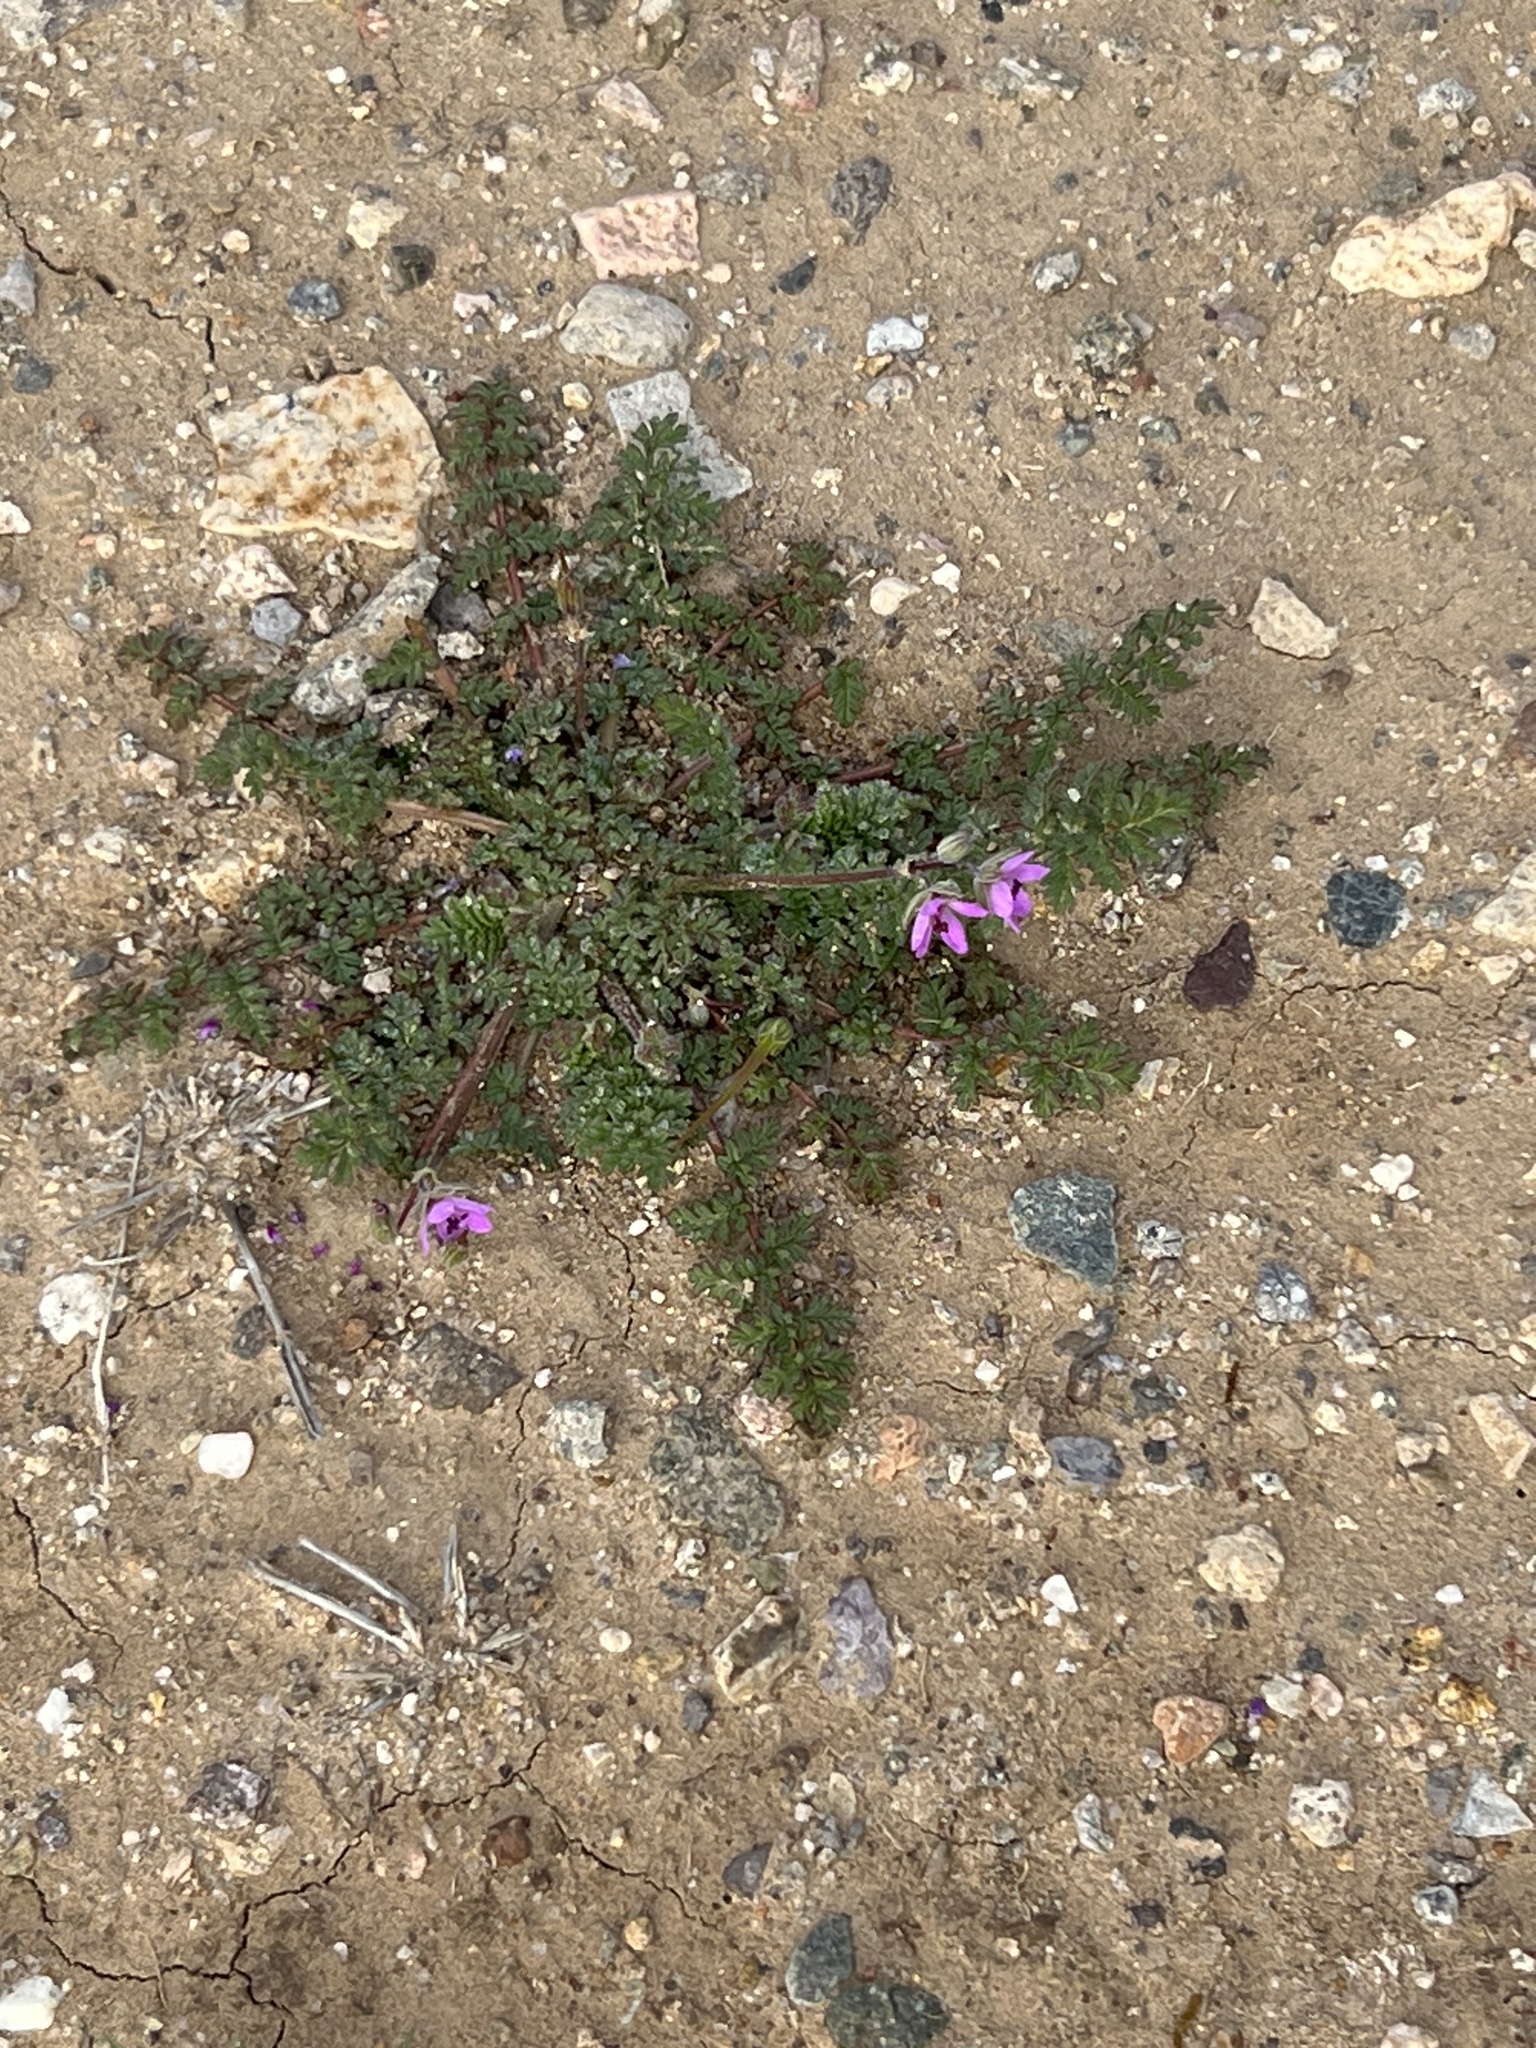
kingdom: Plantae
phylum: Tracheophyta
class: Magnoliopsida
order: Geraniales
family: Geraniaceae
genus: Erodium
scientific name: Erodium cicutarium
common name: Common stork's-bill
